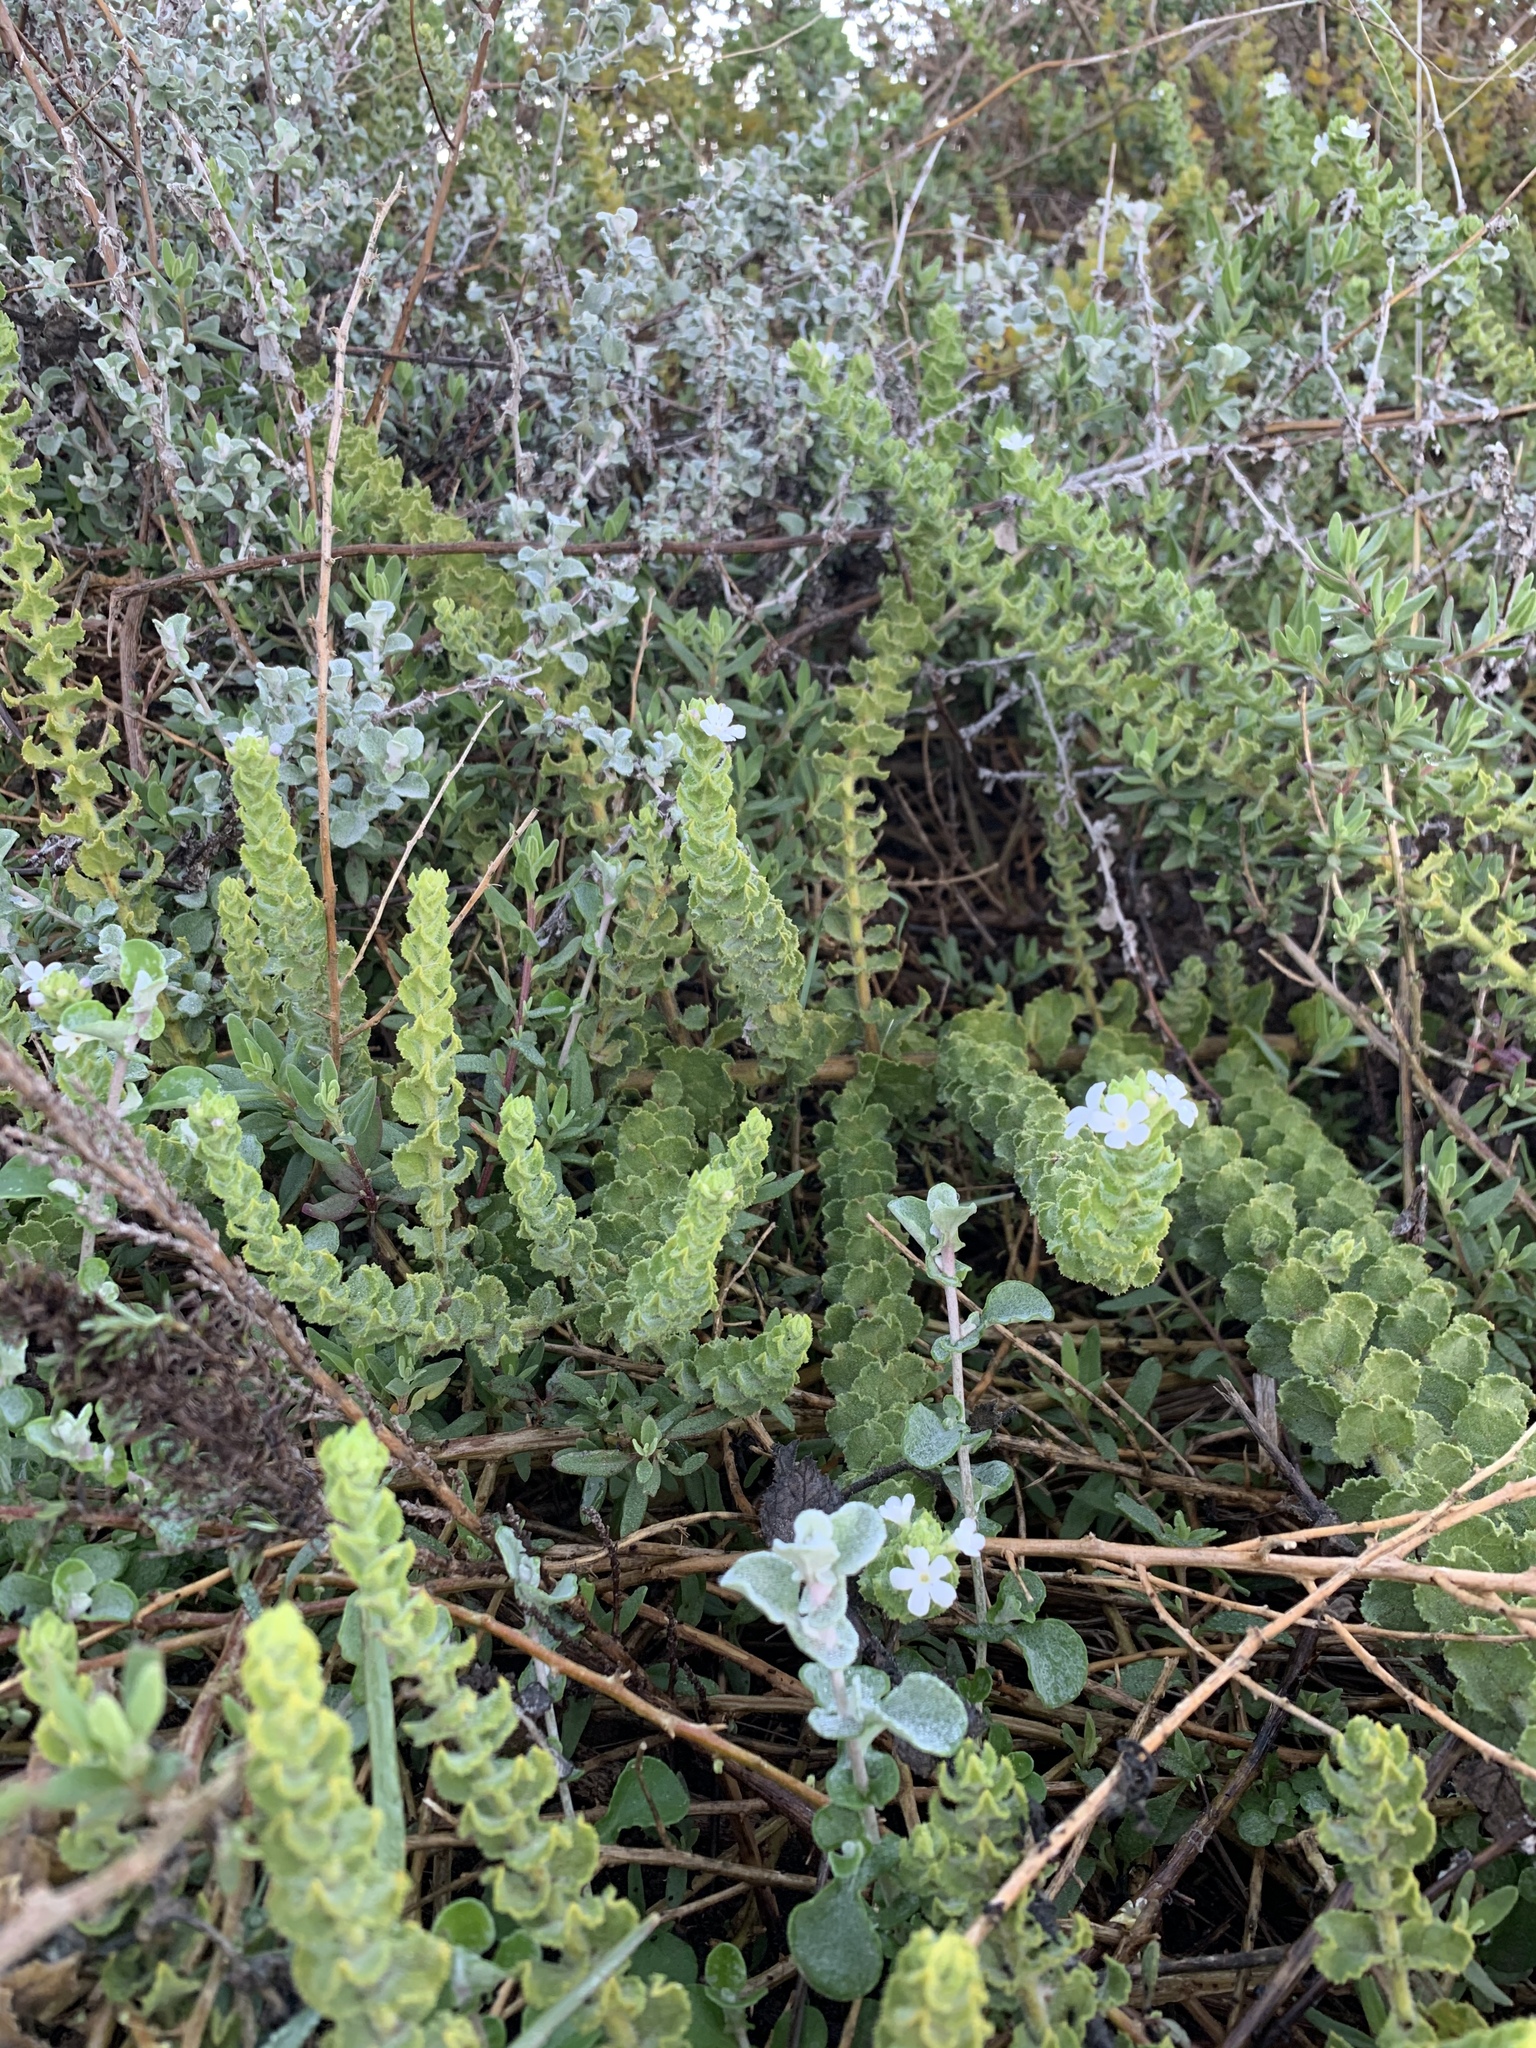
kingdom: Plantae
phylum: Tracheophyta
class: Magnoliopsida
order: Lamiales
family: Scrophulariaceae
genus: Oftia
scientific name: Oftia africana
